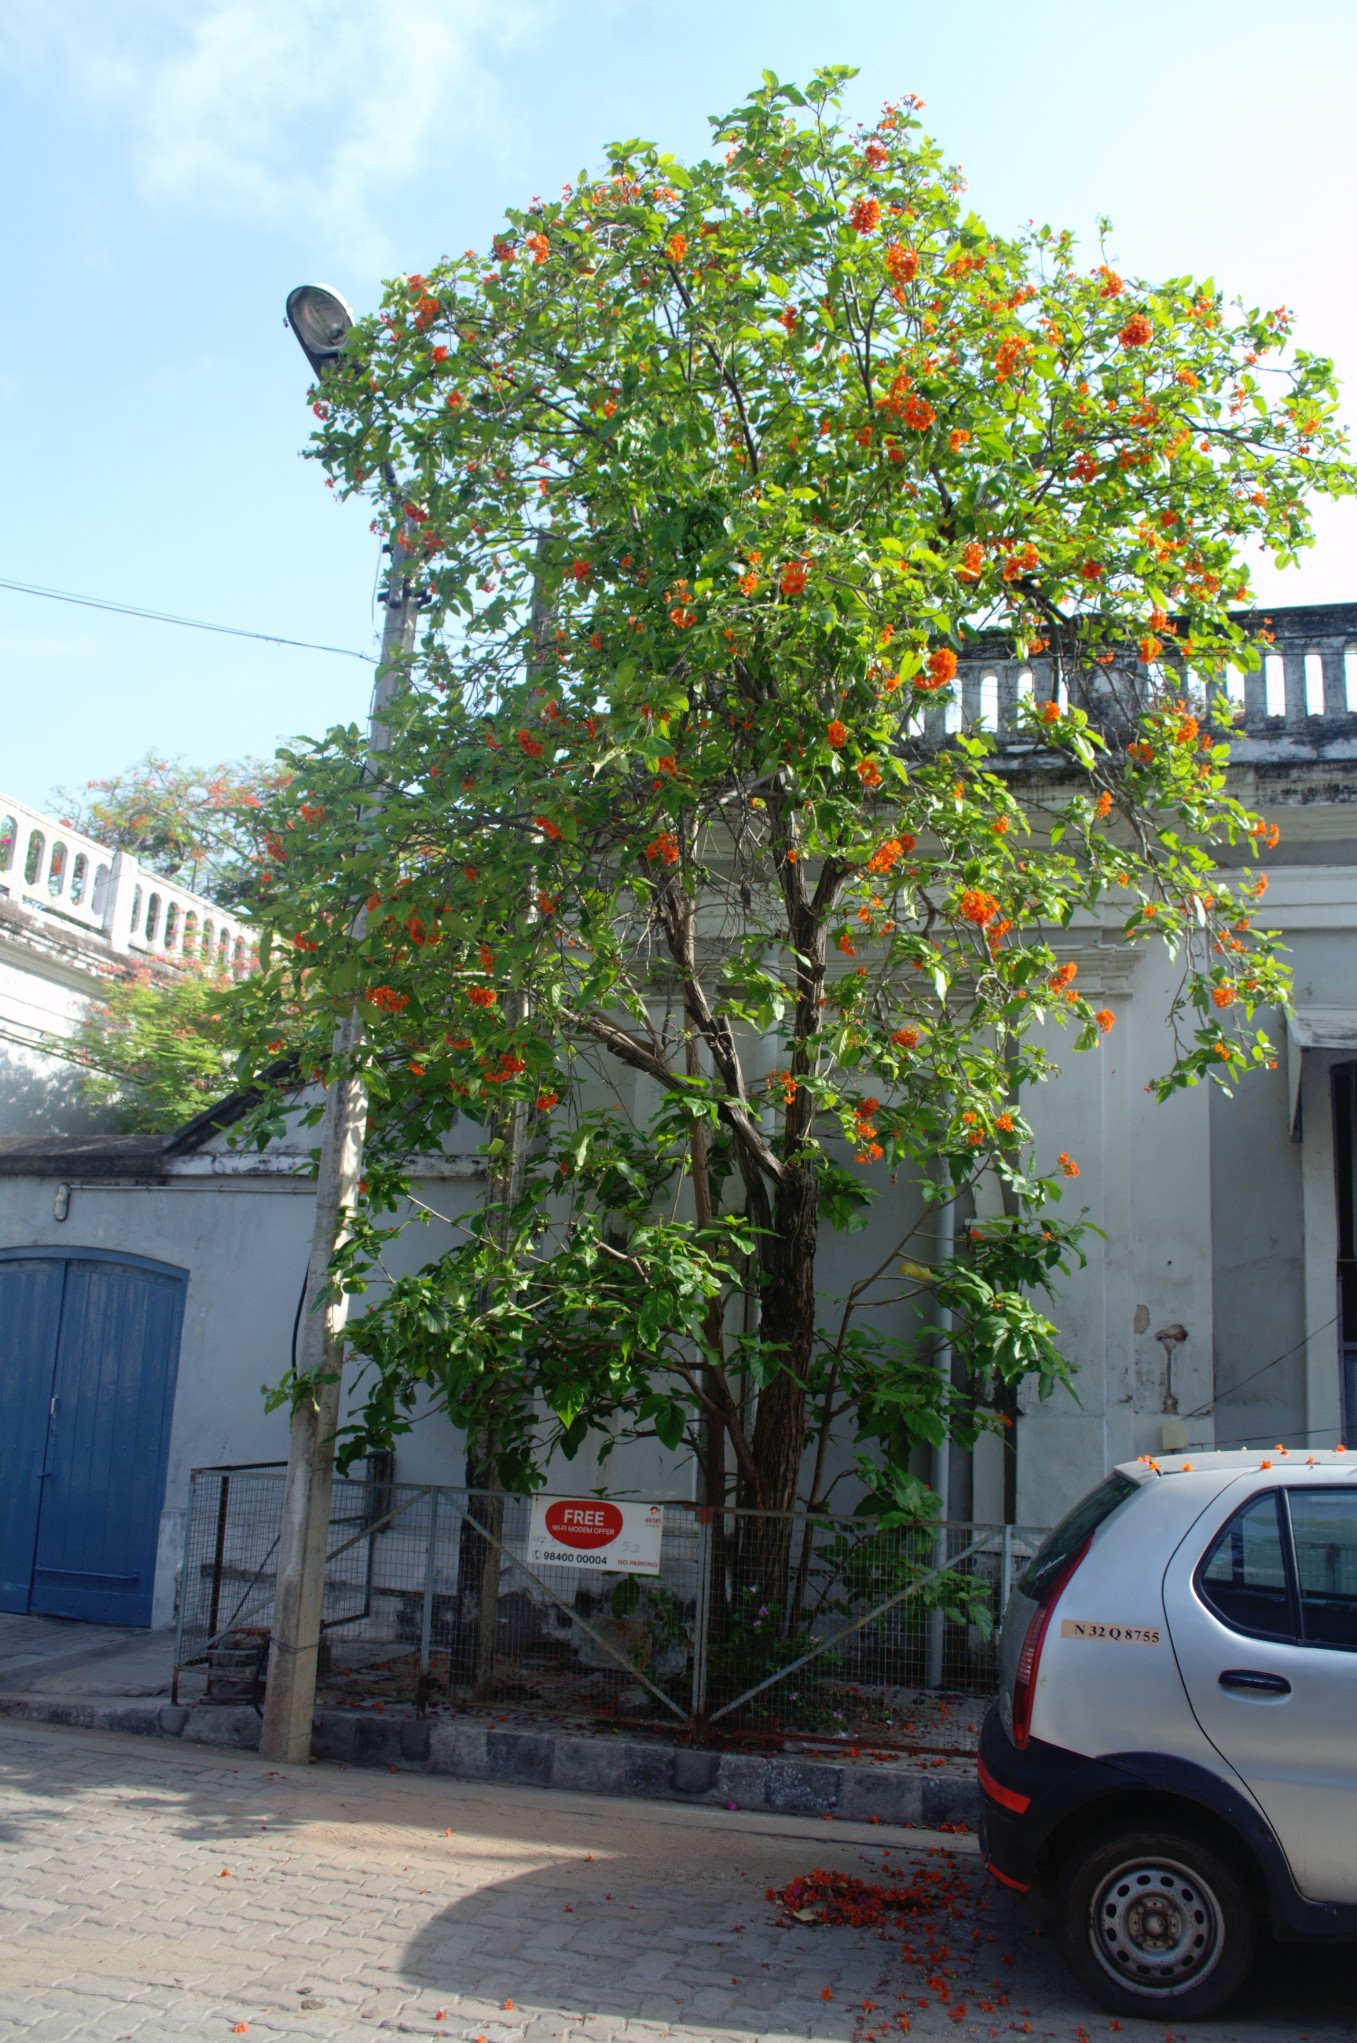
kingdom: Plantae
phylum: Tracheophyta
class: Magnoliopsida
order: Boraginales
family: Cordiaceae
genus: Cordia
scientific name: Cordia sebestena
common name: Largeleaf geigertree
